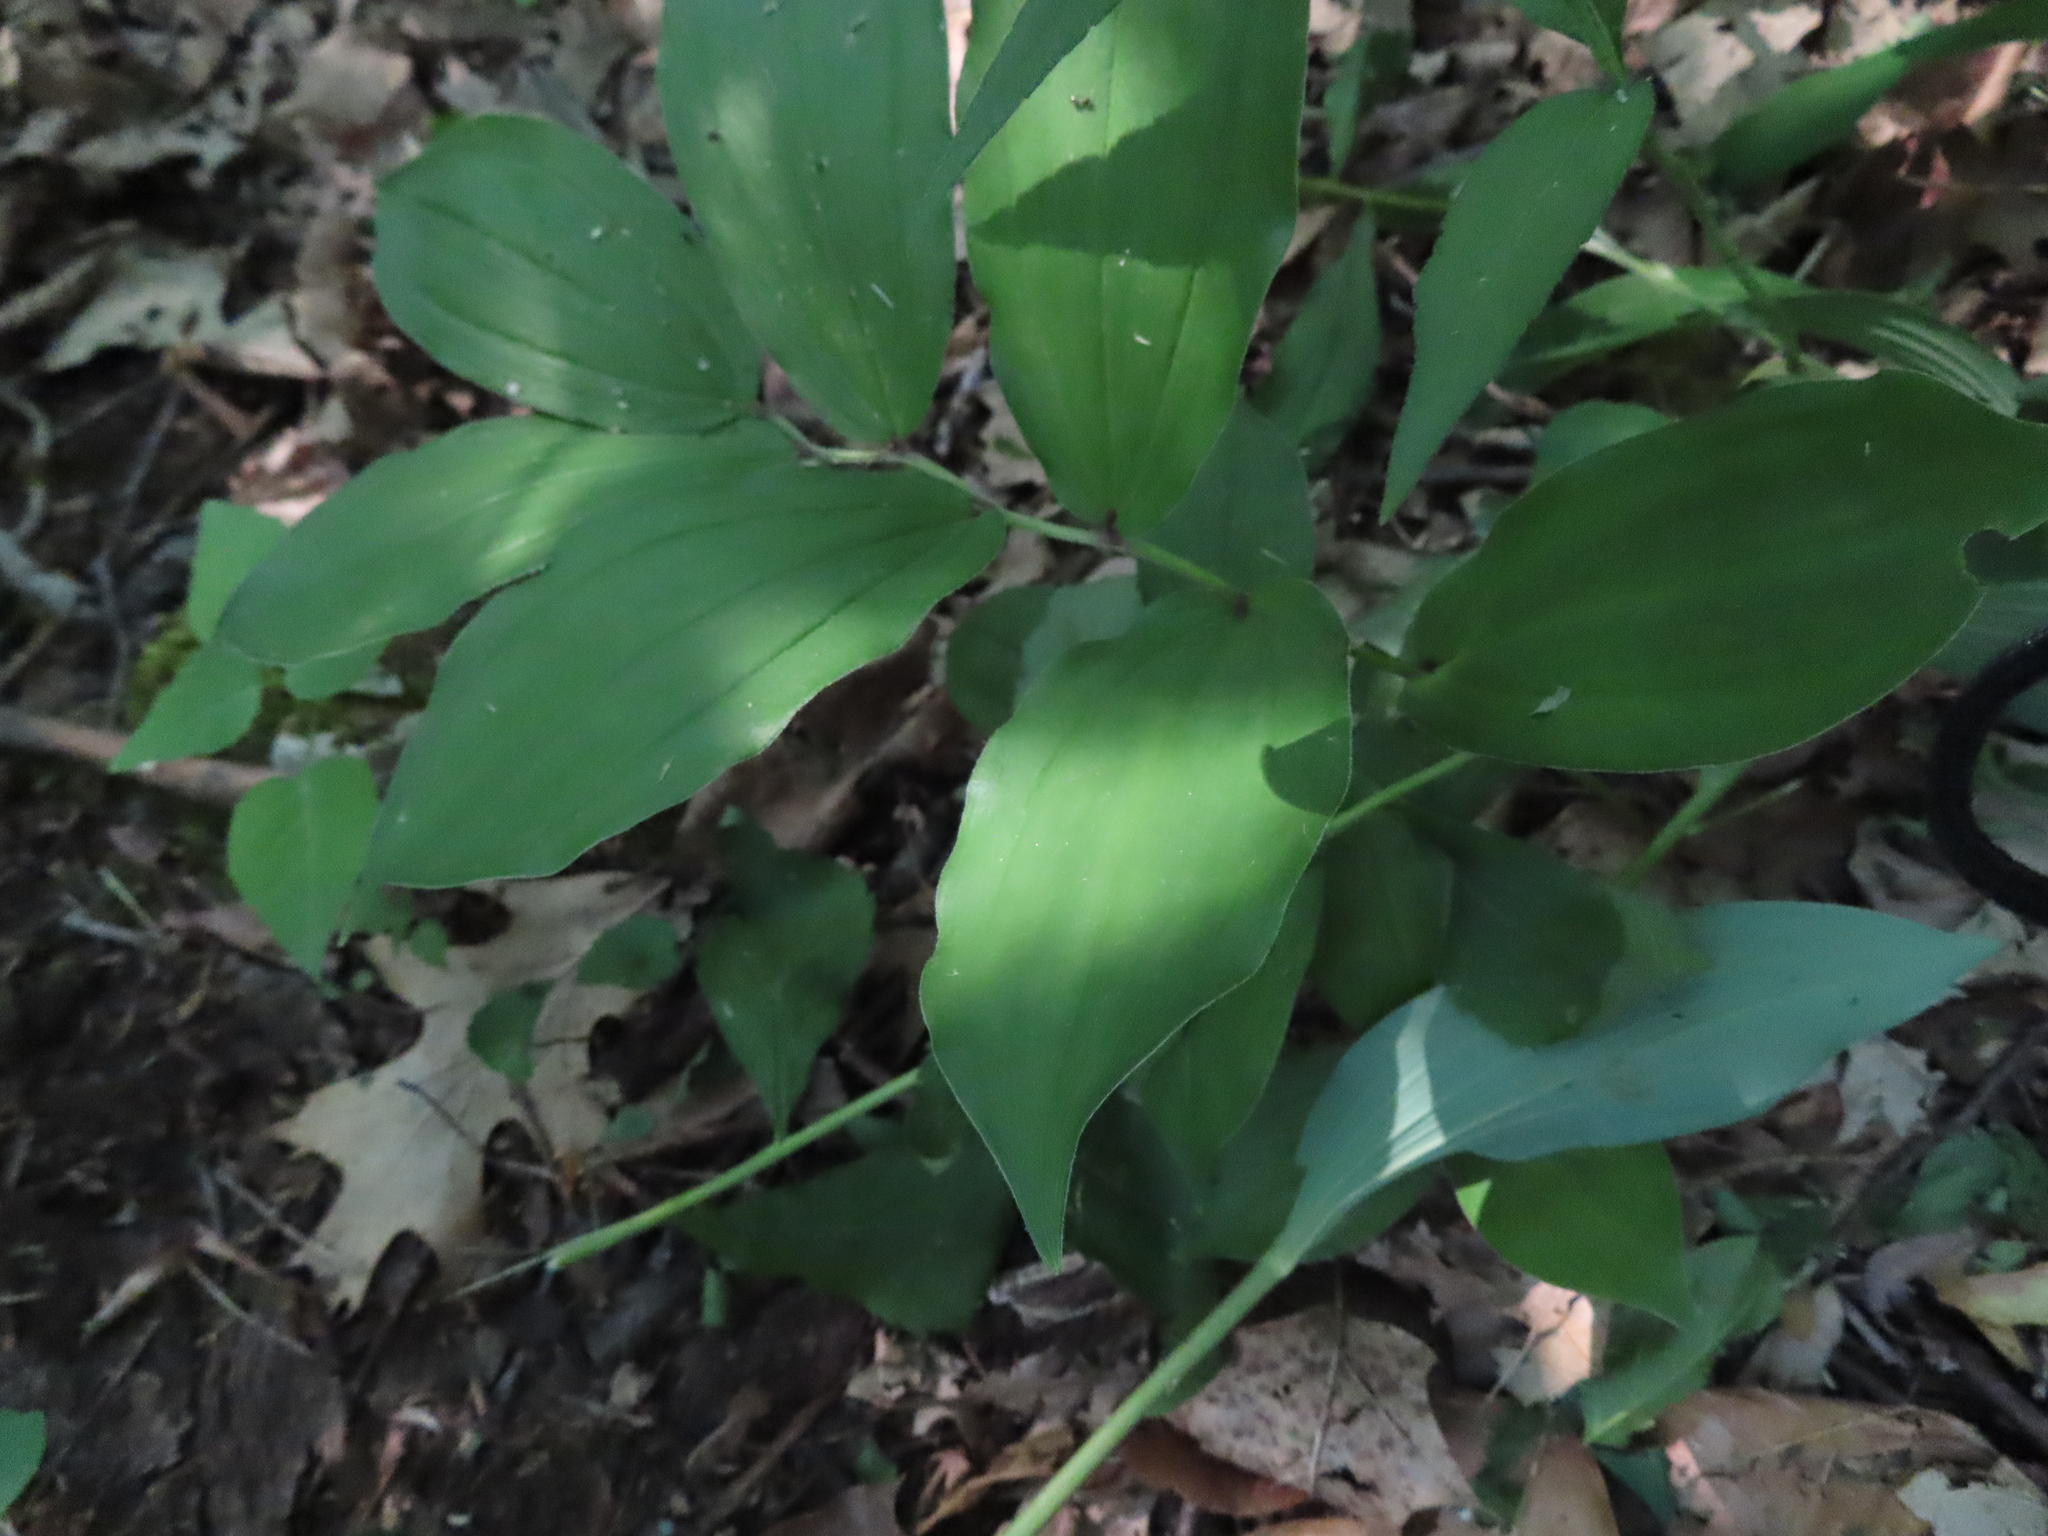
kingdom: Plantae
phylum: Tracheophyta
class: Liliopsida
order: Asparagales
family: Asparagaceae
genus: Maianthemum
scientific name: Maianthemum racemosum
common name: False spikenard
